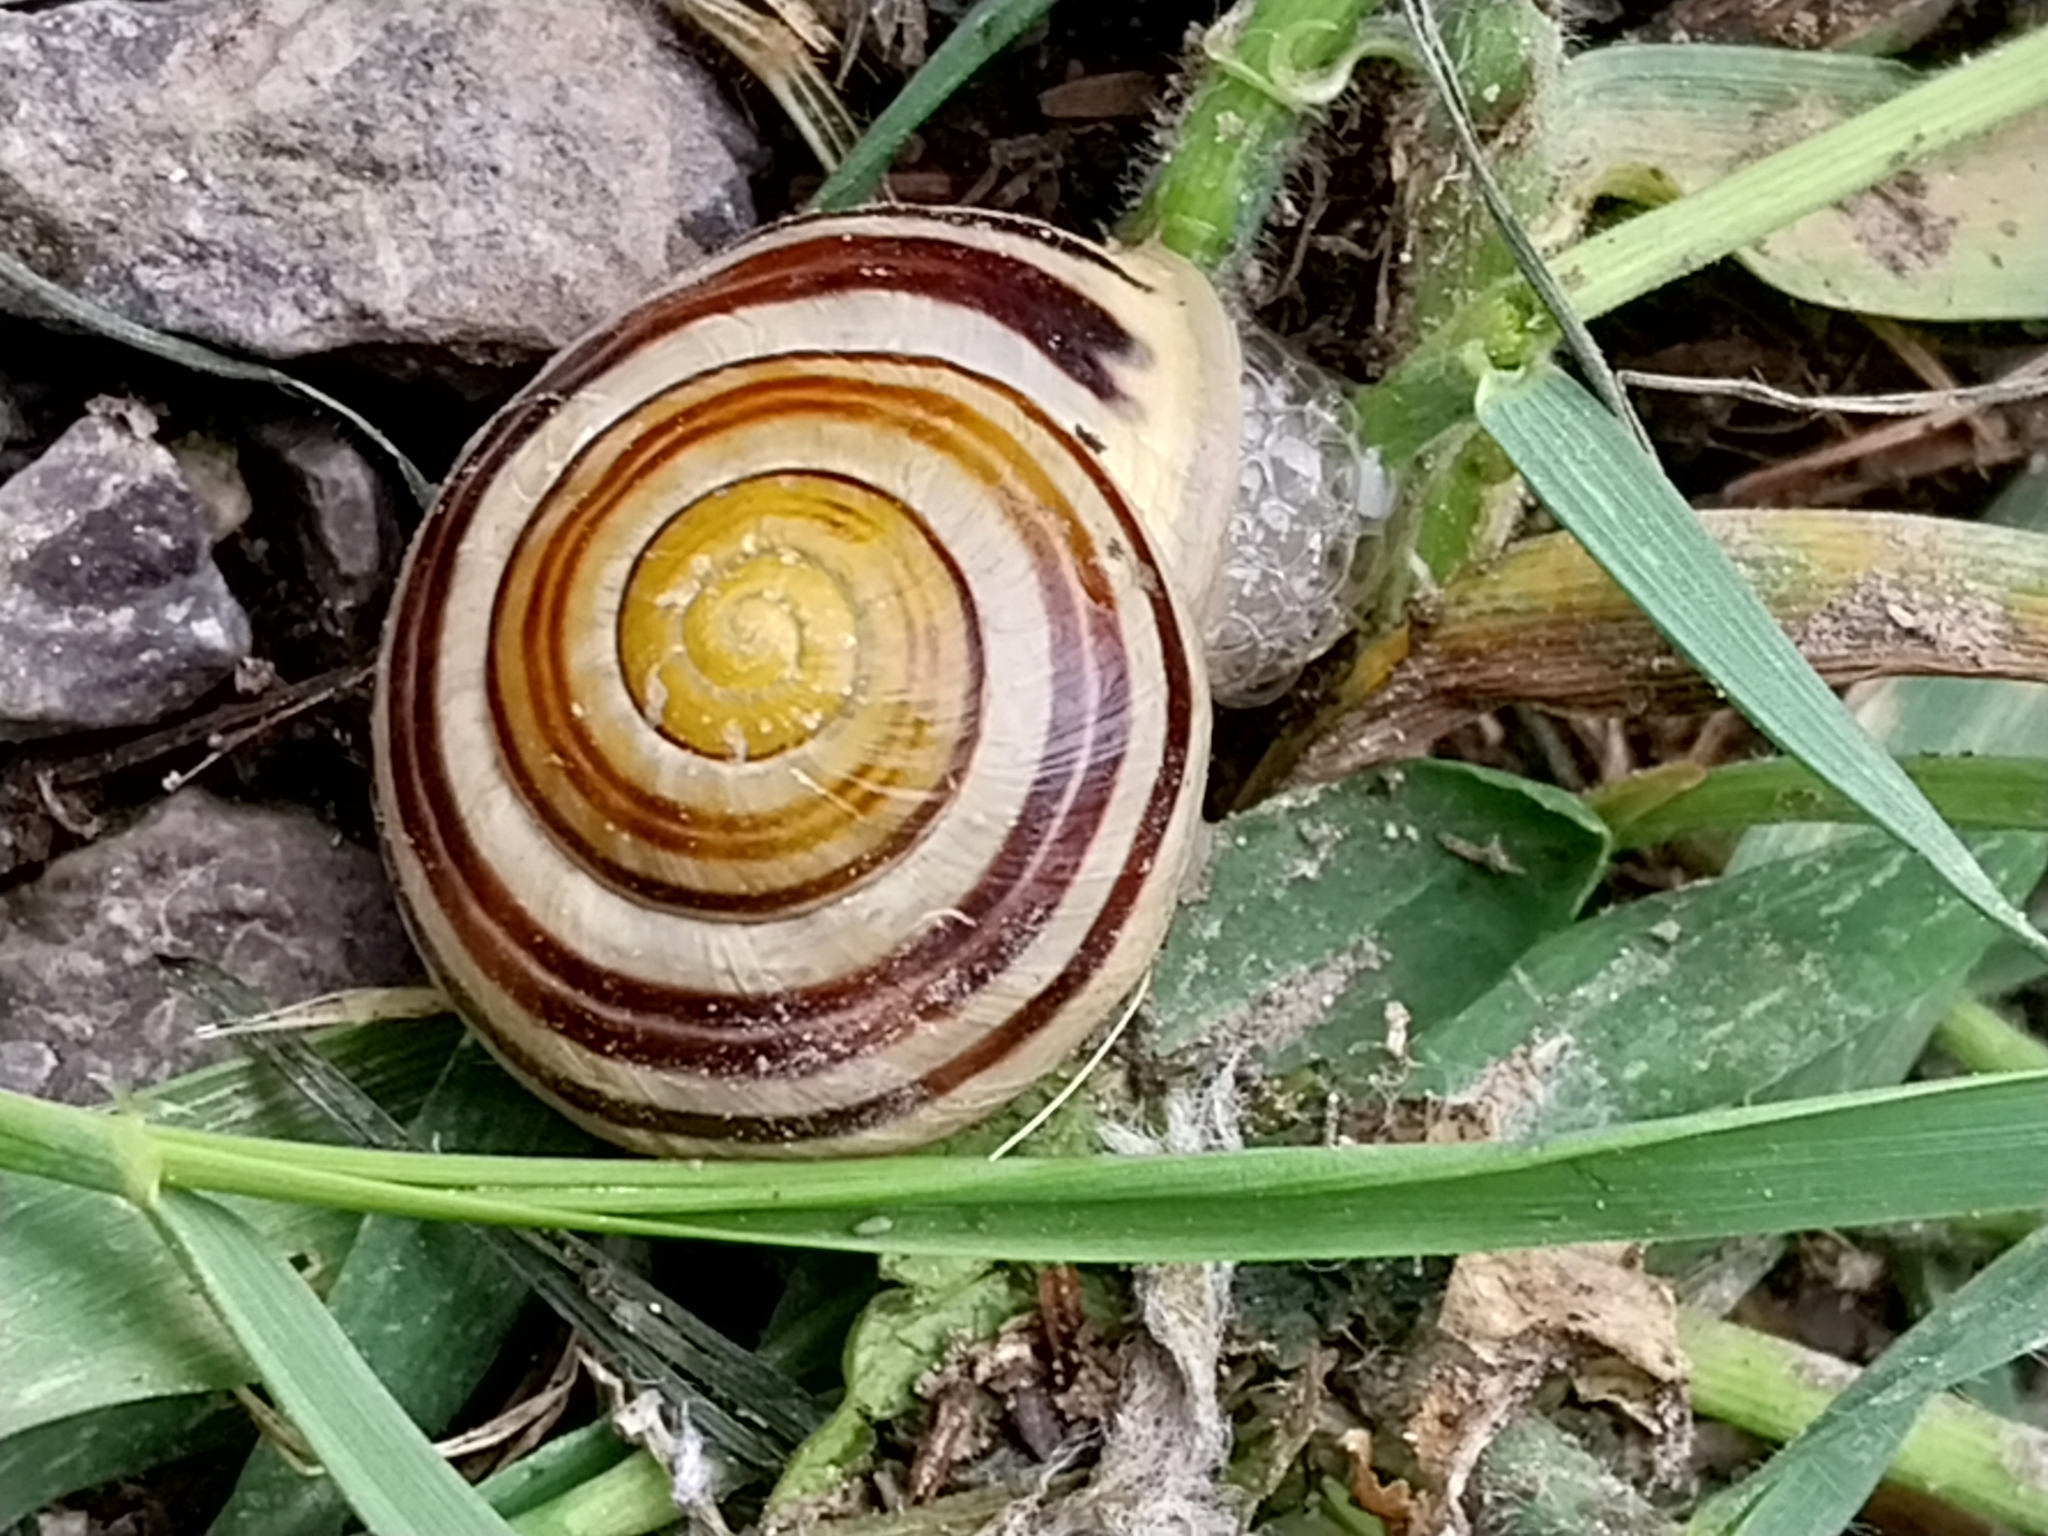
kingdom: Animalia
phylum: Mollusca
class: Gastropoda
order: Stylommatophora
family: Helicidae
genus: Cepaea
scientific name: Cepaea hortensis
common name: White-lip gardensnail
